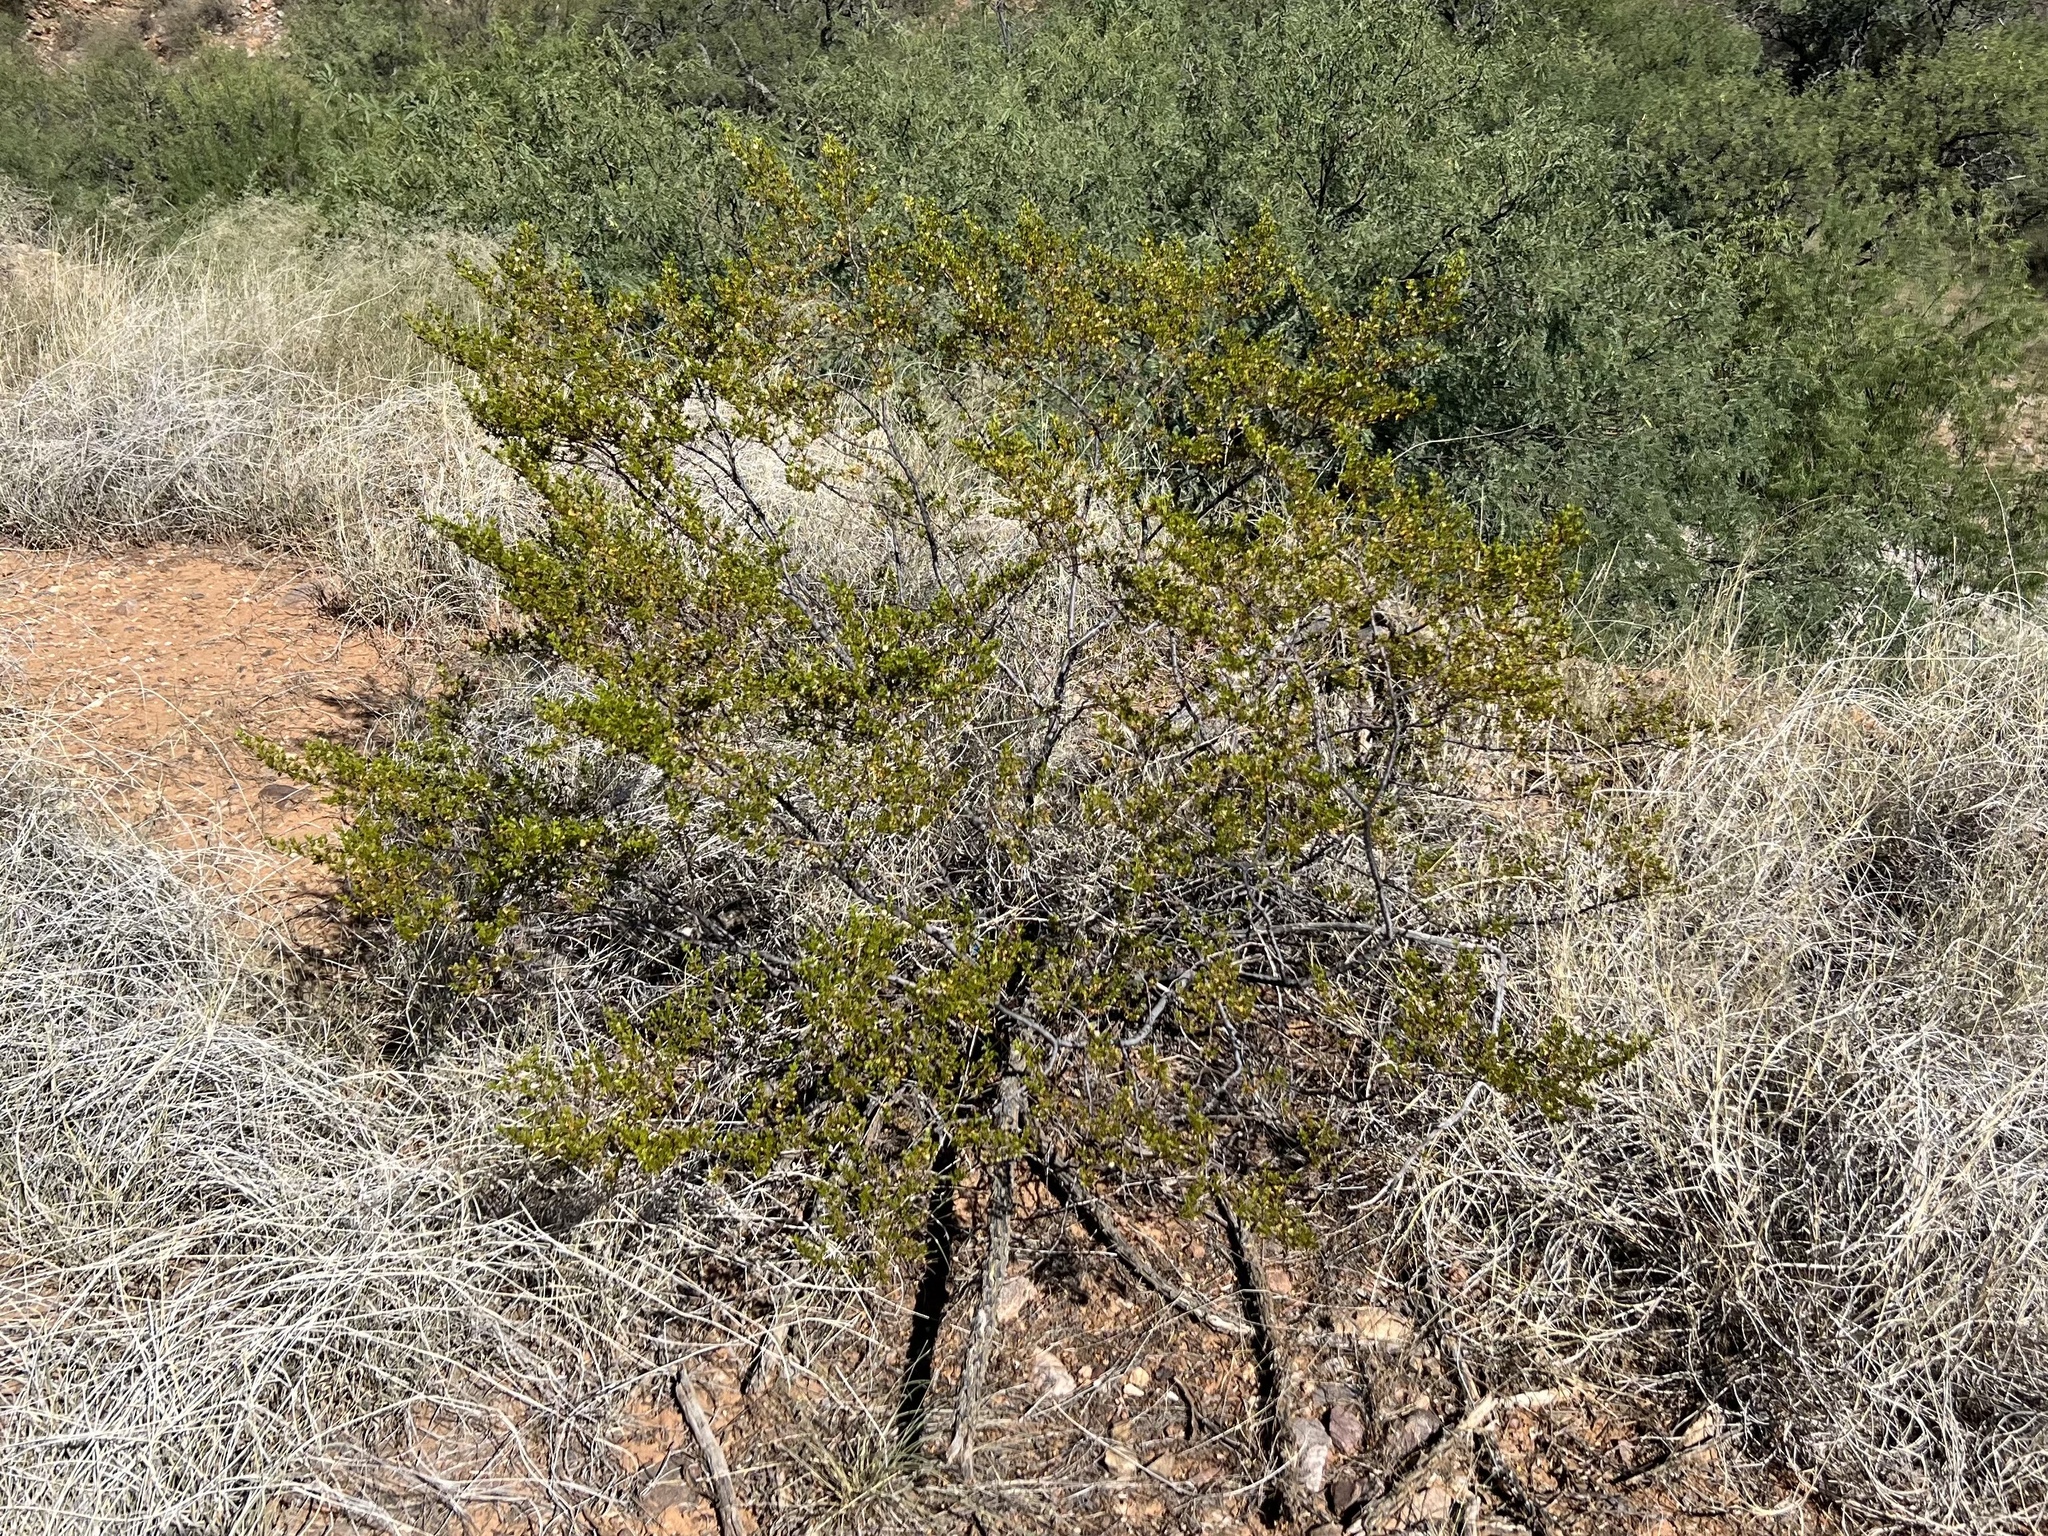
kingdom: Plantae
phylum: Tracheophyta
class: Magnoliopsida
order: Zygophyllales
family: Zygophyllaceae
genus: Larrea
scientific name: Larrea tridentata
